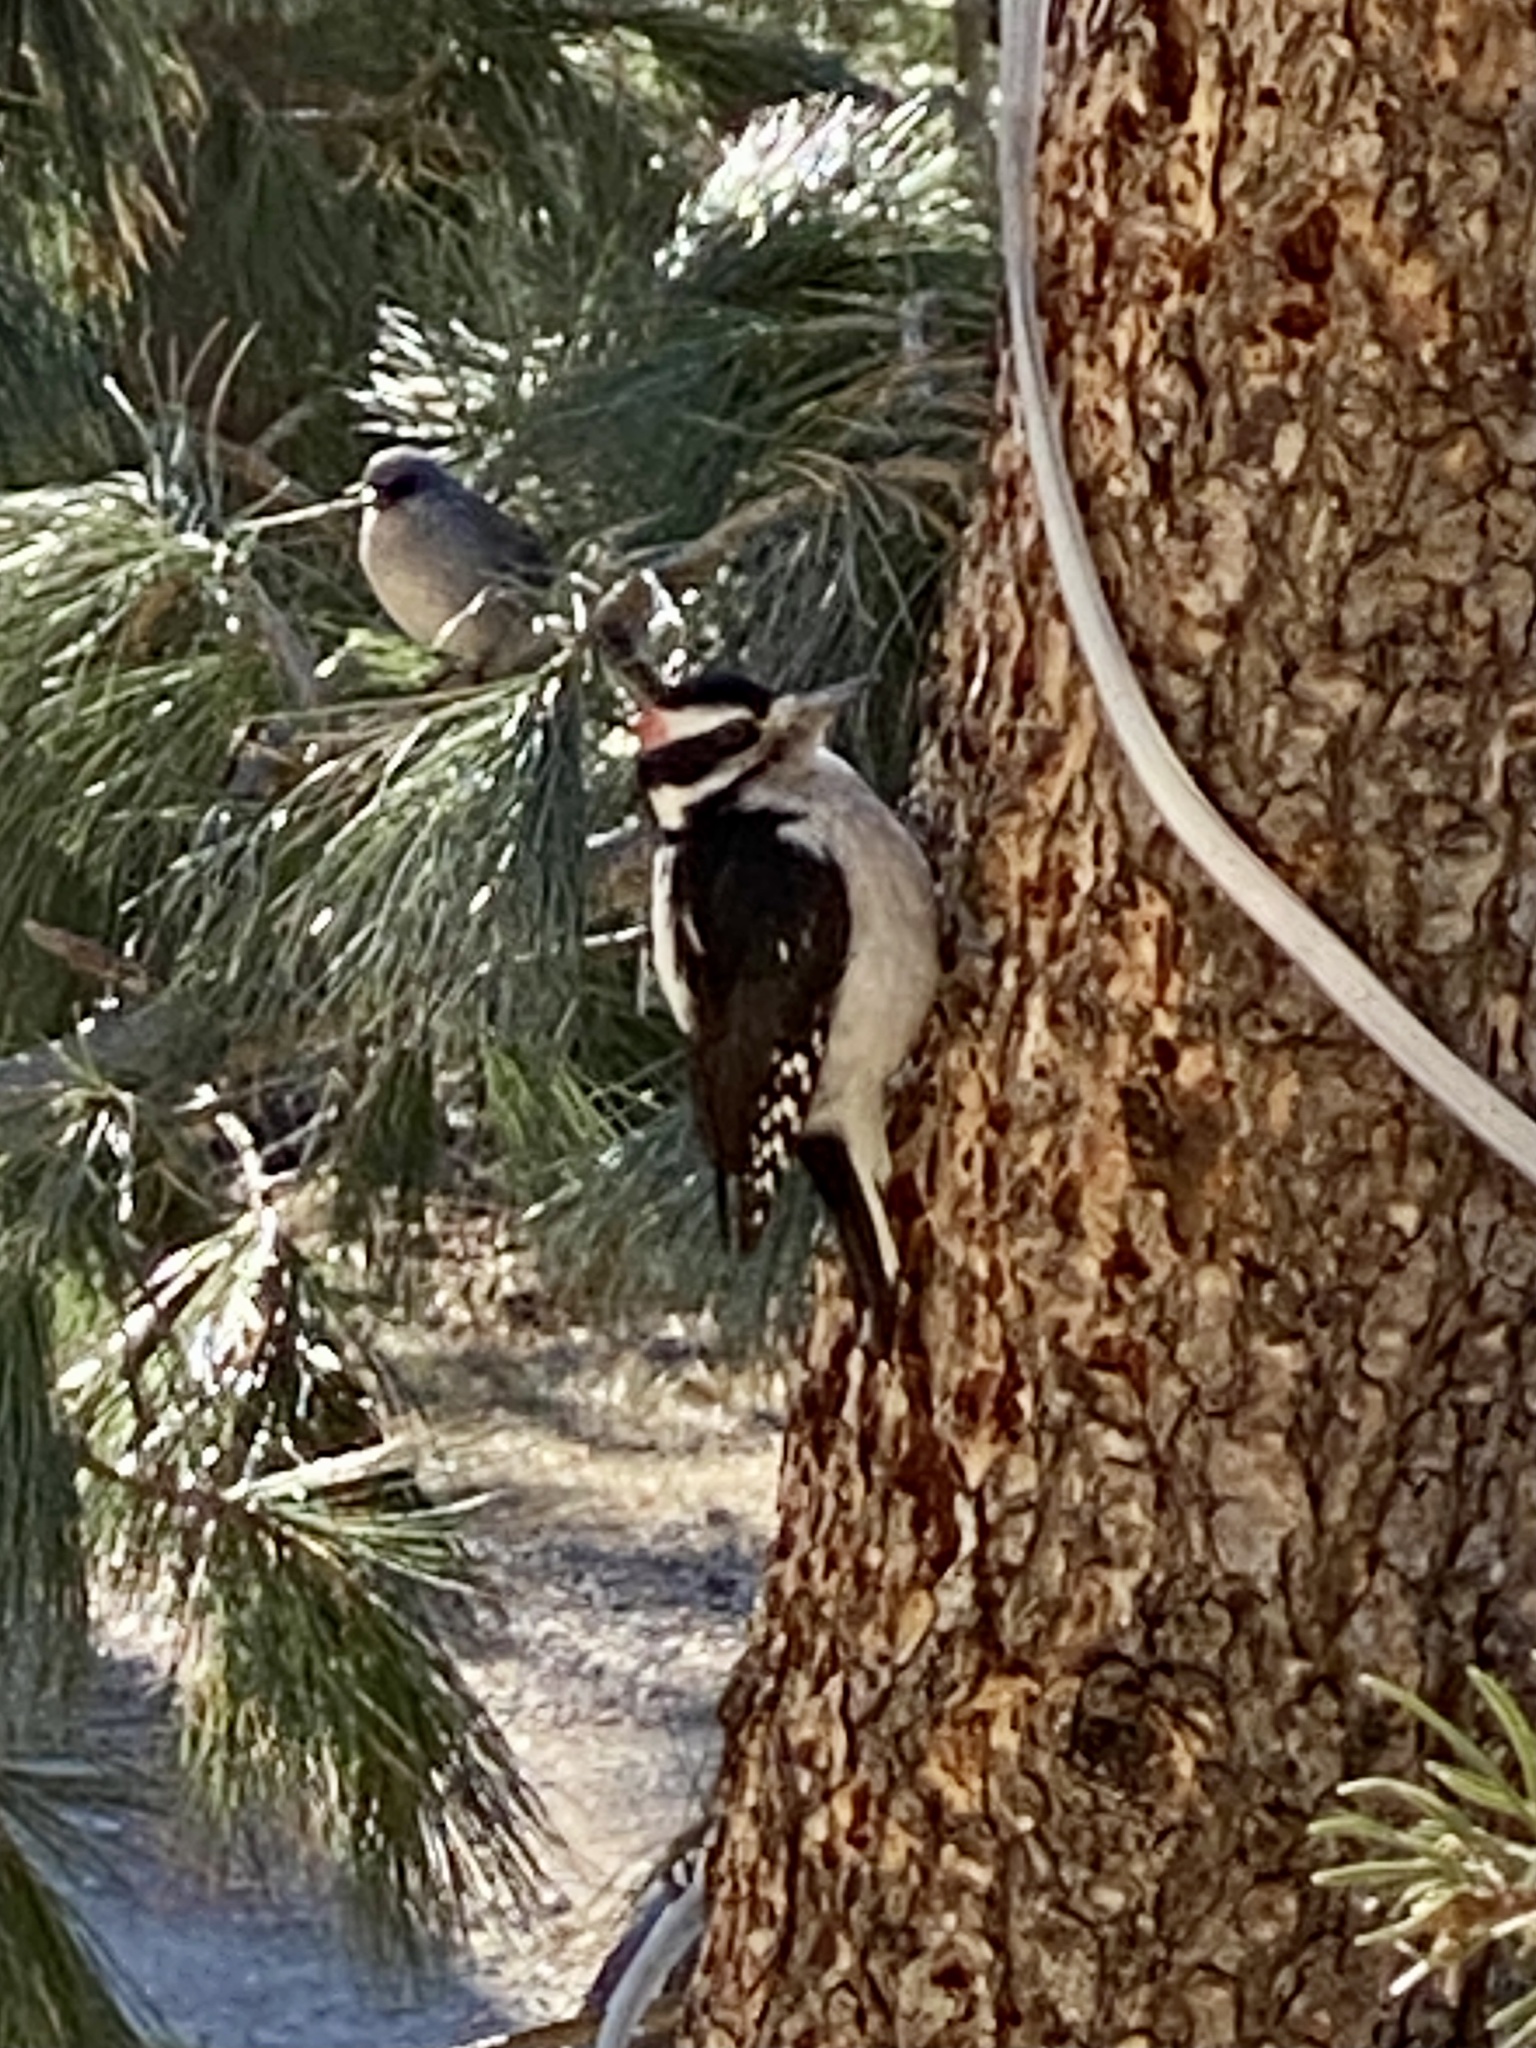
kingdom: Animalia
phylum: Chordata
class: Aves
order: Piciformes
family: Picidae
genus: Leuconotopicus
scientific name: Leuconotopicus villosus
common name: Hairy woodpecker
